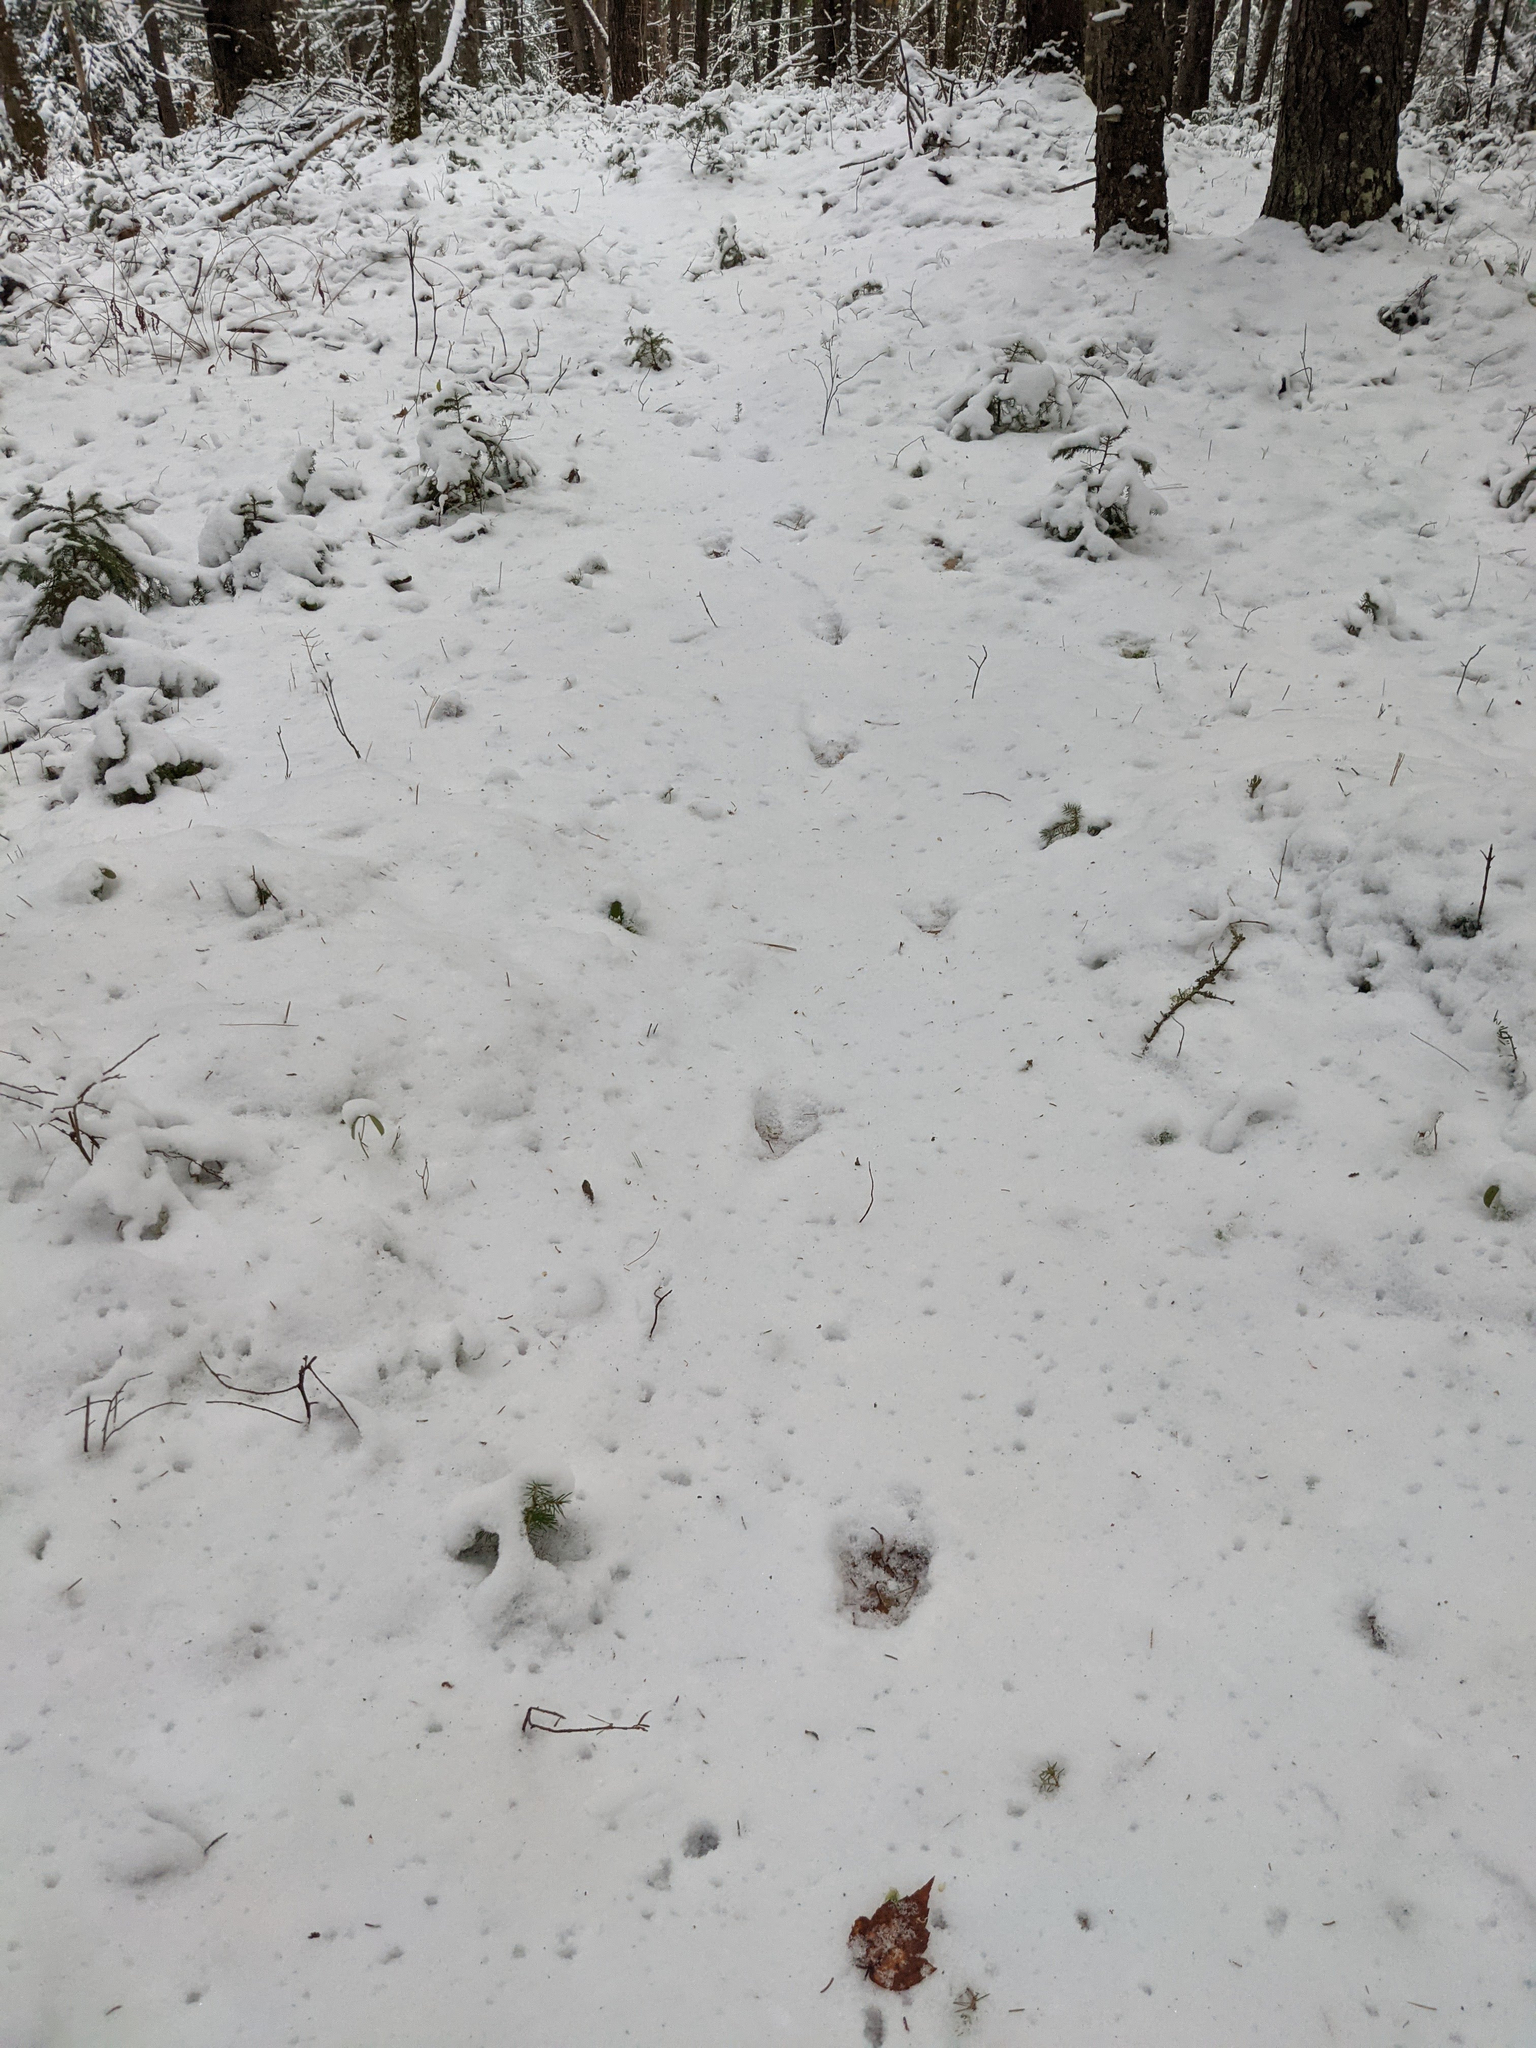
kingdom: Animalia
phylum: Chordata
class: Mammalia
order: Artiodactyla
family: Cervidae
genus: Odocoileus
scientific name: Odocoileus virginianus
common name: White-tailed deer
